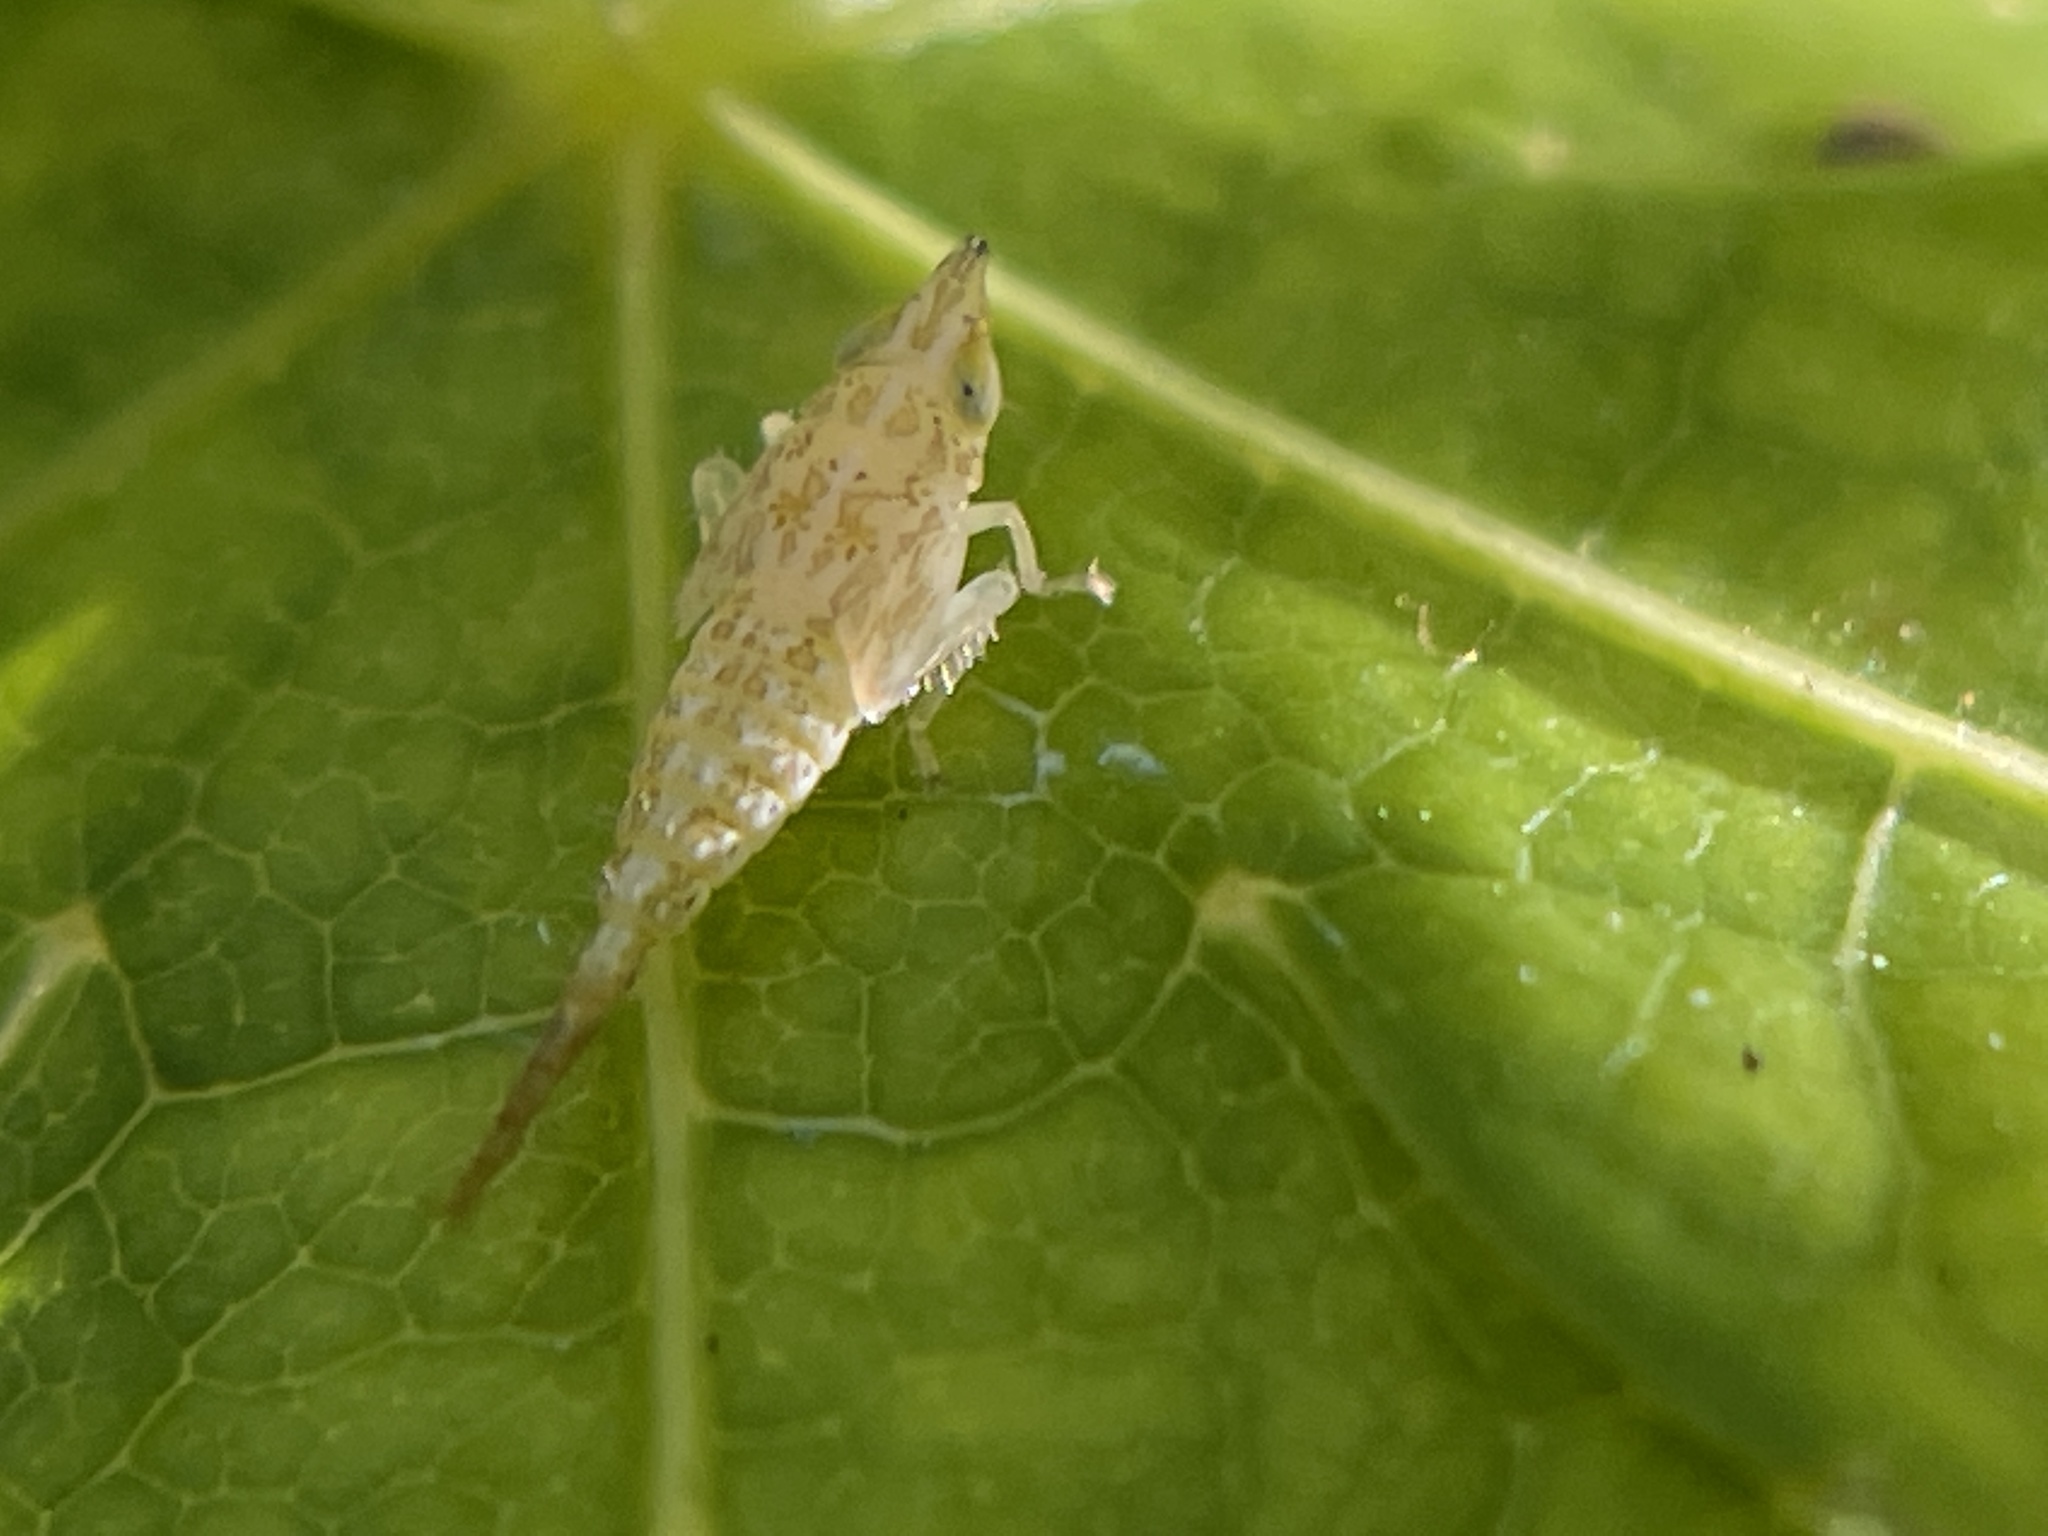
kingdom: Animalia
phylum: Arthropoda
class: Insecta
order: Hemiptera
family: Cicadellidae
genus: Japananus
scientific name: Japananus hyalinus
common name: The japanese maple leafhopper
